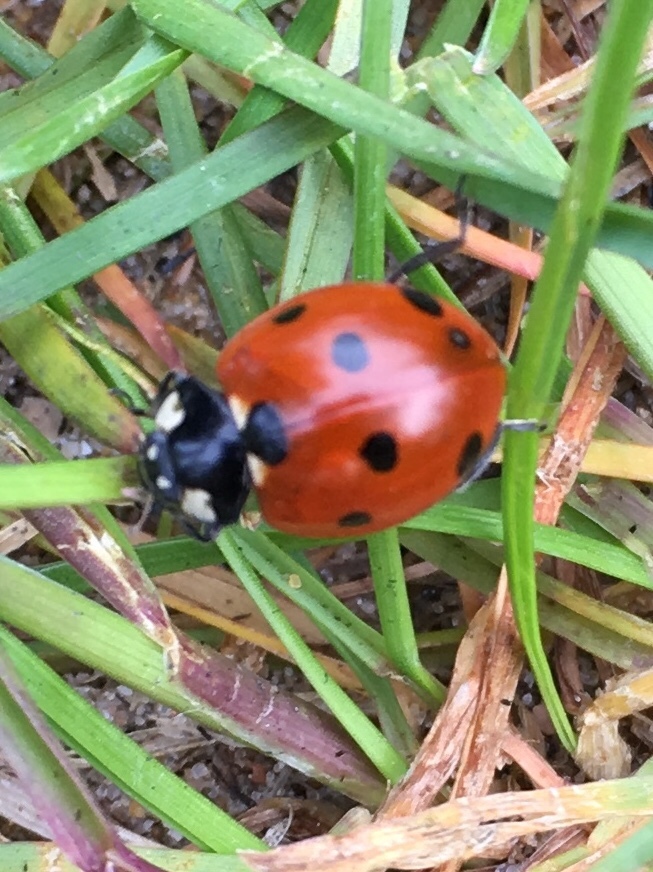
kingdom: Animalia
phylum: Arthropoda
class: Insecta
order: Coleoptera
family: Coccinellidae
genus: Coccinella
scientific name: Coccinella septempunctata
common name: Sevenspotted lady beetle
